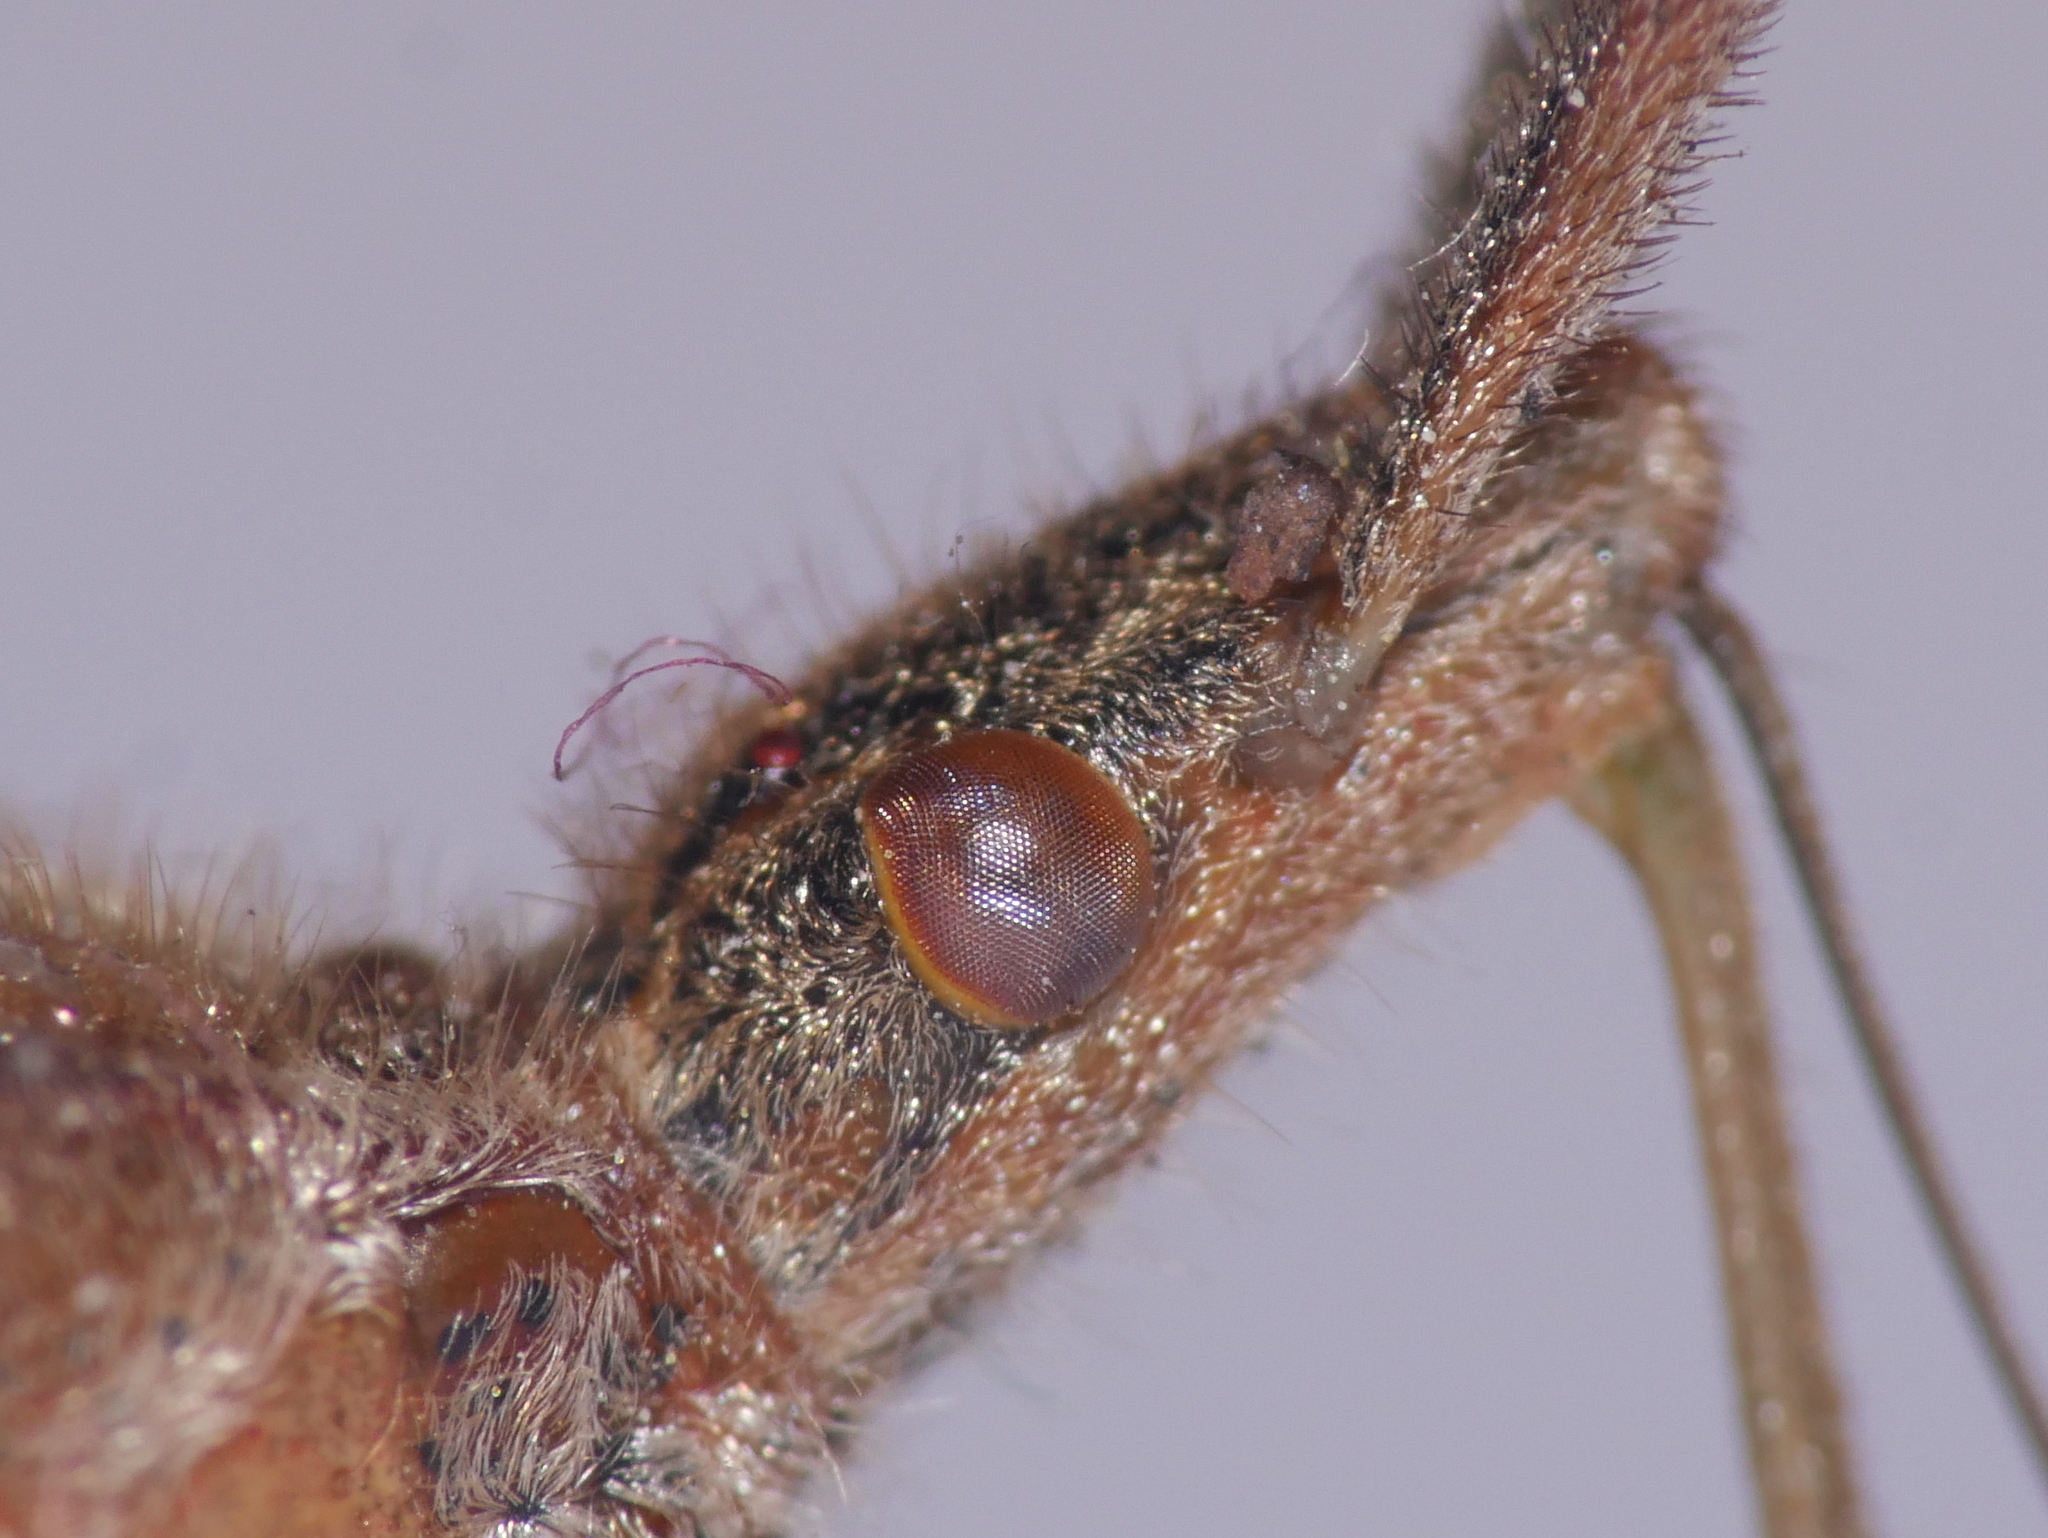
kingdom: Animalia
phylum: Arthropoda
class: Insecta
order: Hemiptera
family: Coreidae
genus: Leptoglossus
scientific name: Leptoglossus occidentalis
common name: Western conifer-seed bug
